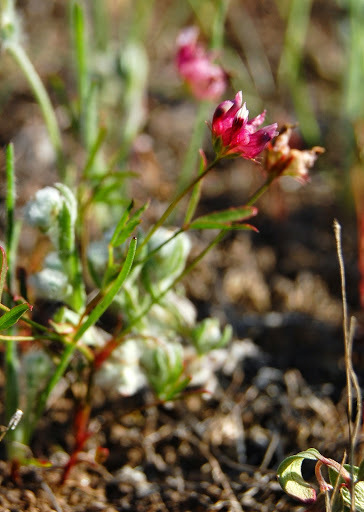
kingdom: Plantae
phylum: Tracheophyta
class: Magnoliopsida
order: Fabales
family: Fabaceae
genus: Trifolium
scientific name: Trifolium depauperatum
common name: Poverty clover
